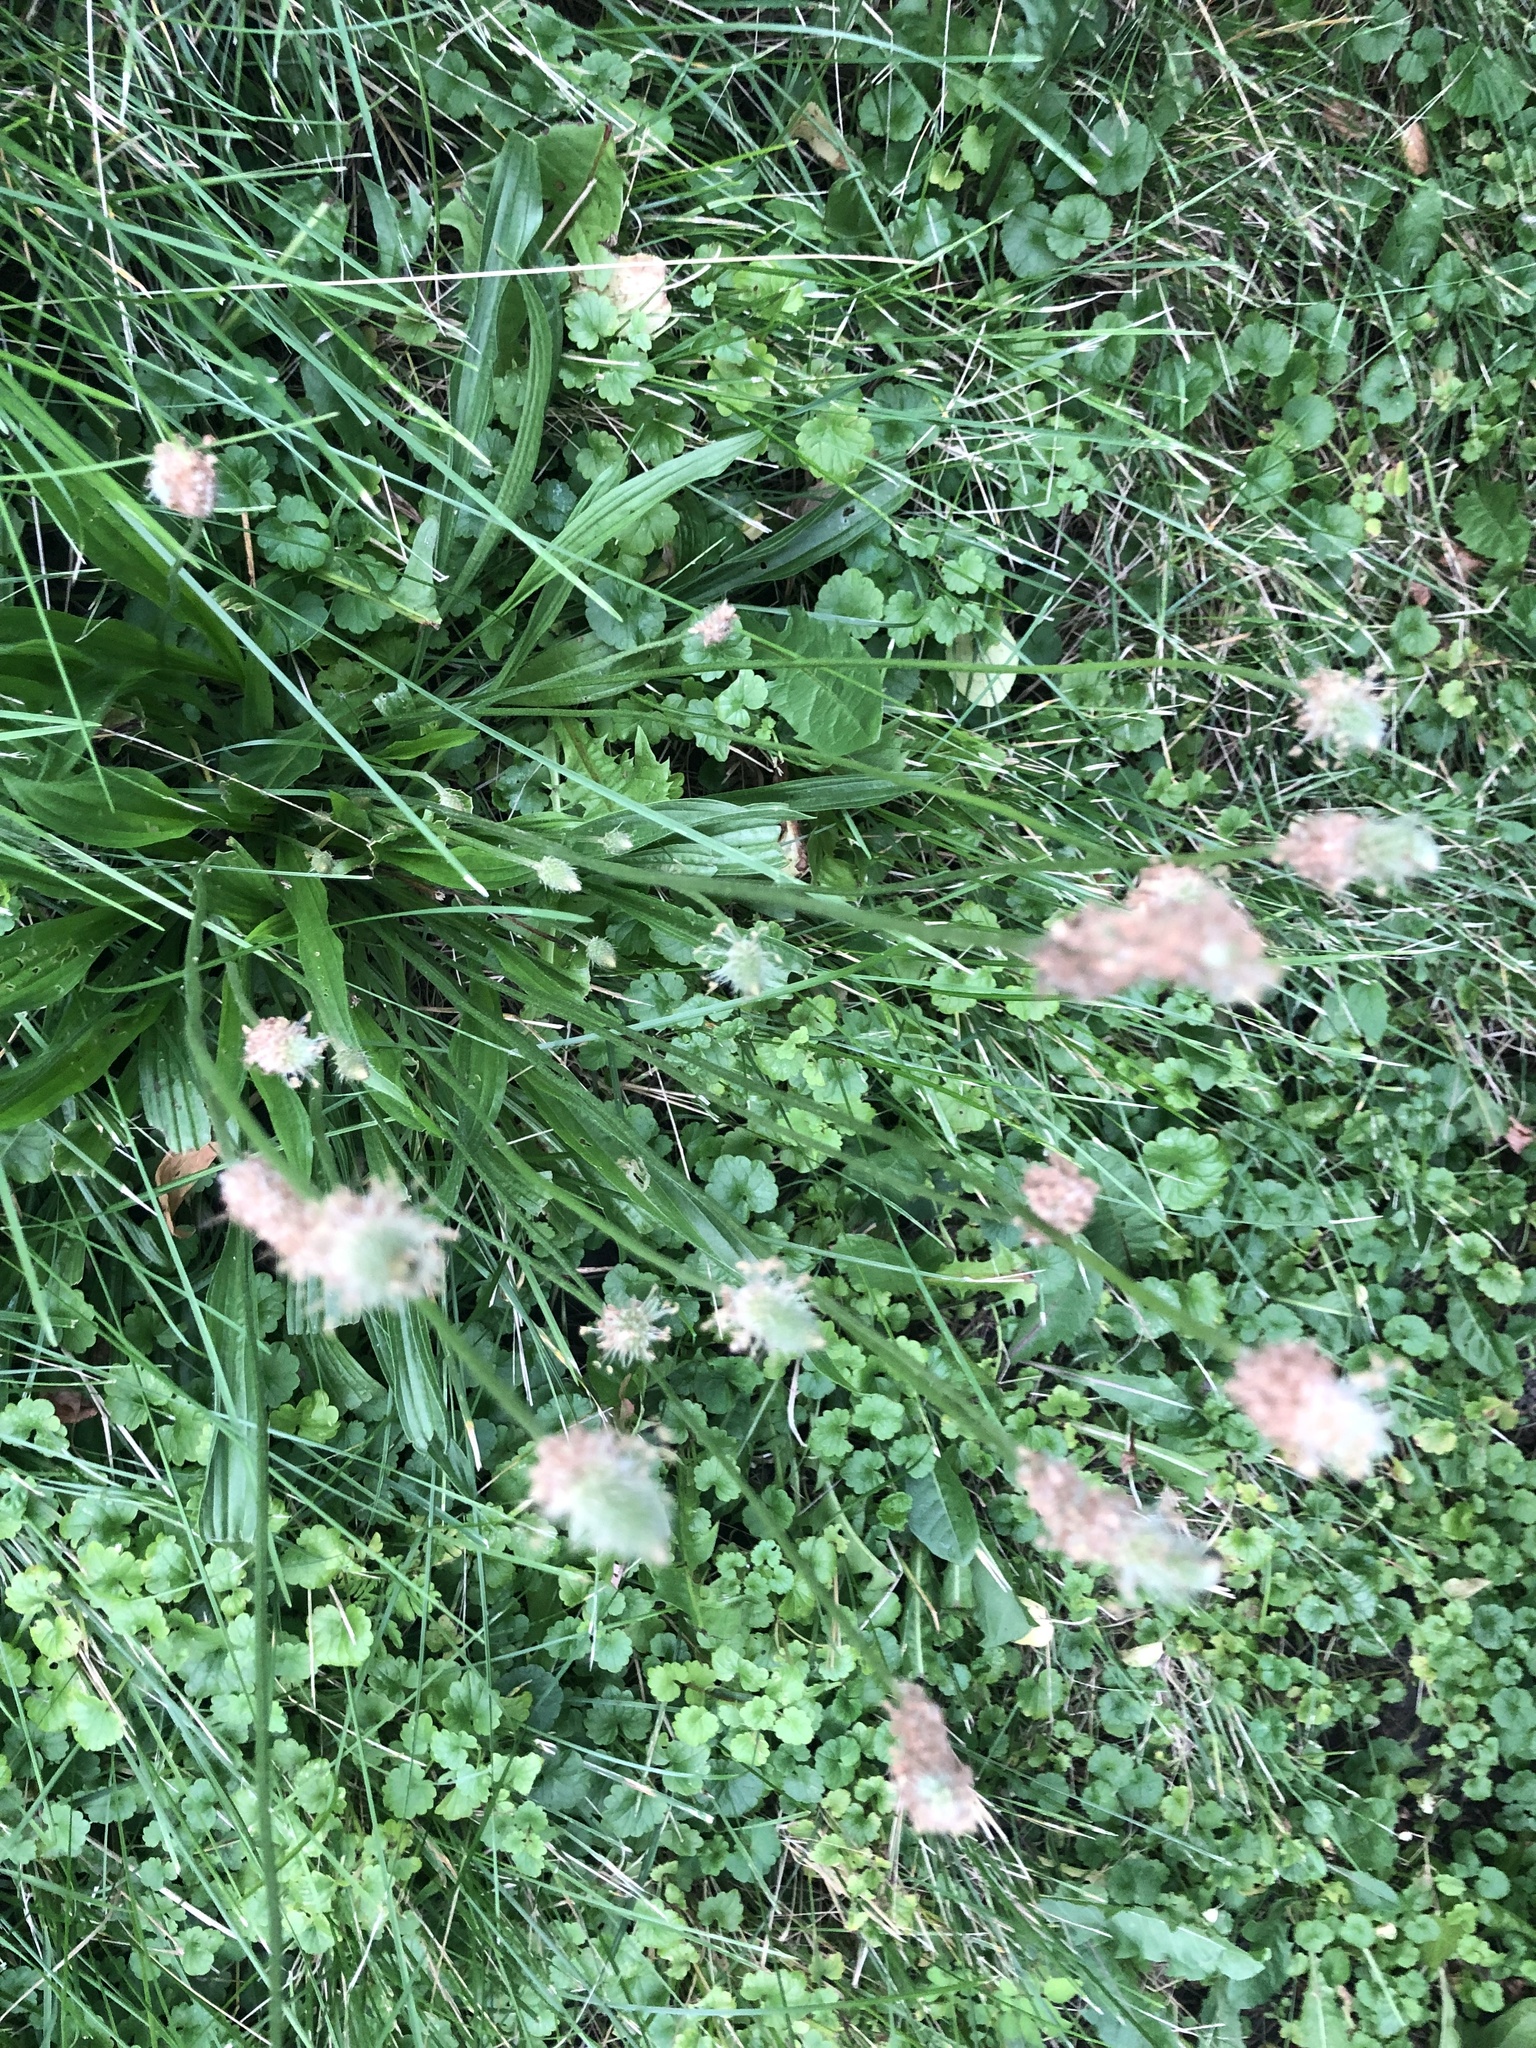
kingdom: Plantae
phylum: Tracheophyta
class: Magnoliopsida
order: Lamiales
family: Plantaginaceae
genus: Plantago
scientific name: Plantago lanceolata
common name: Ribwort plantain
